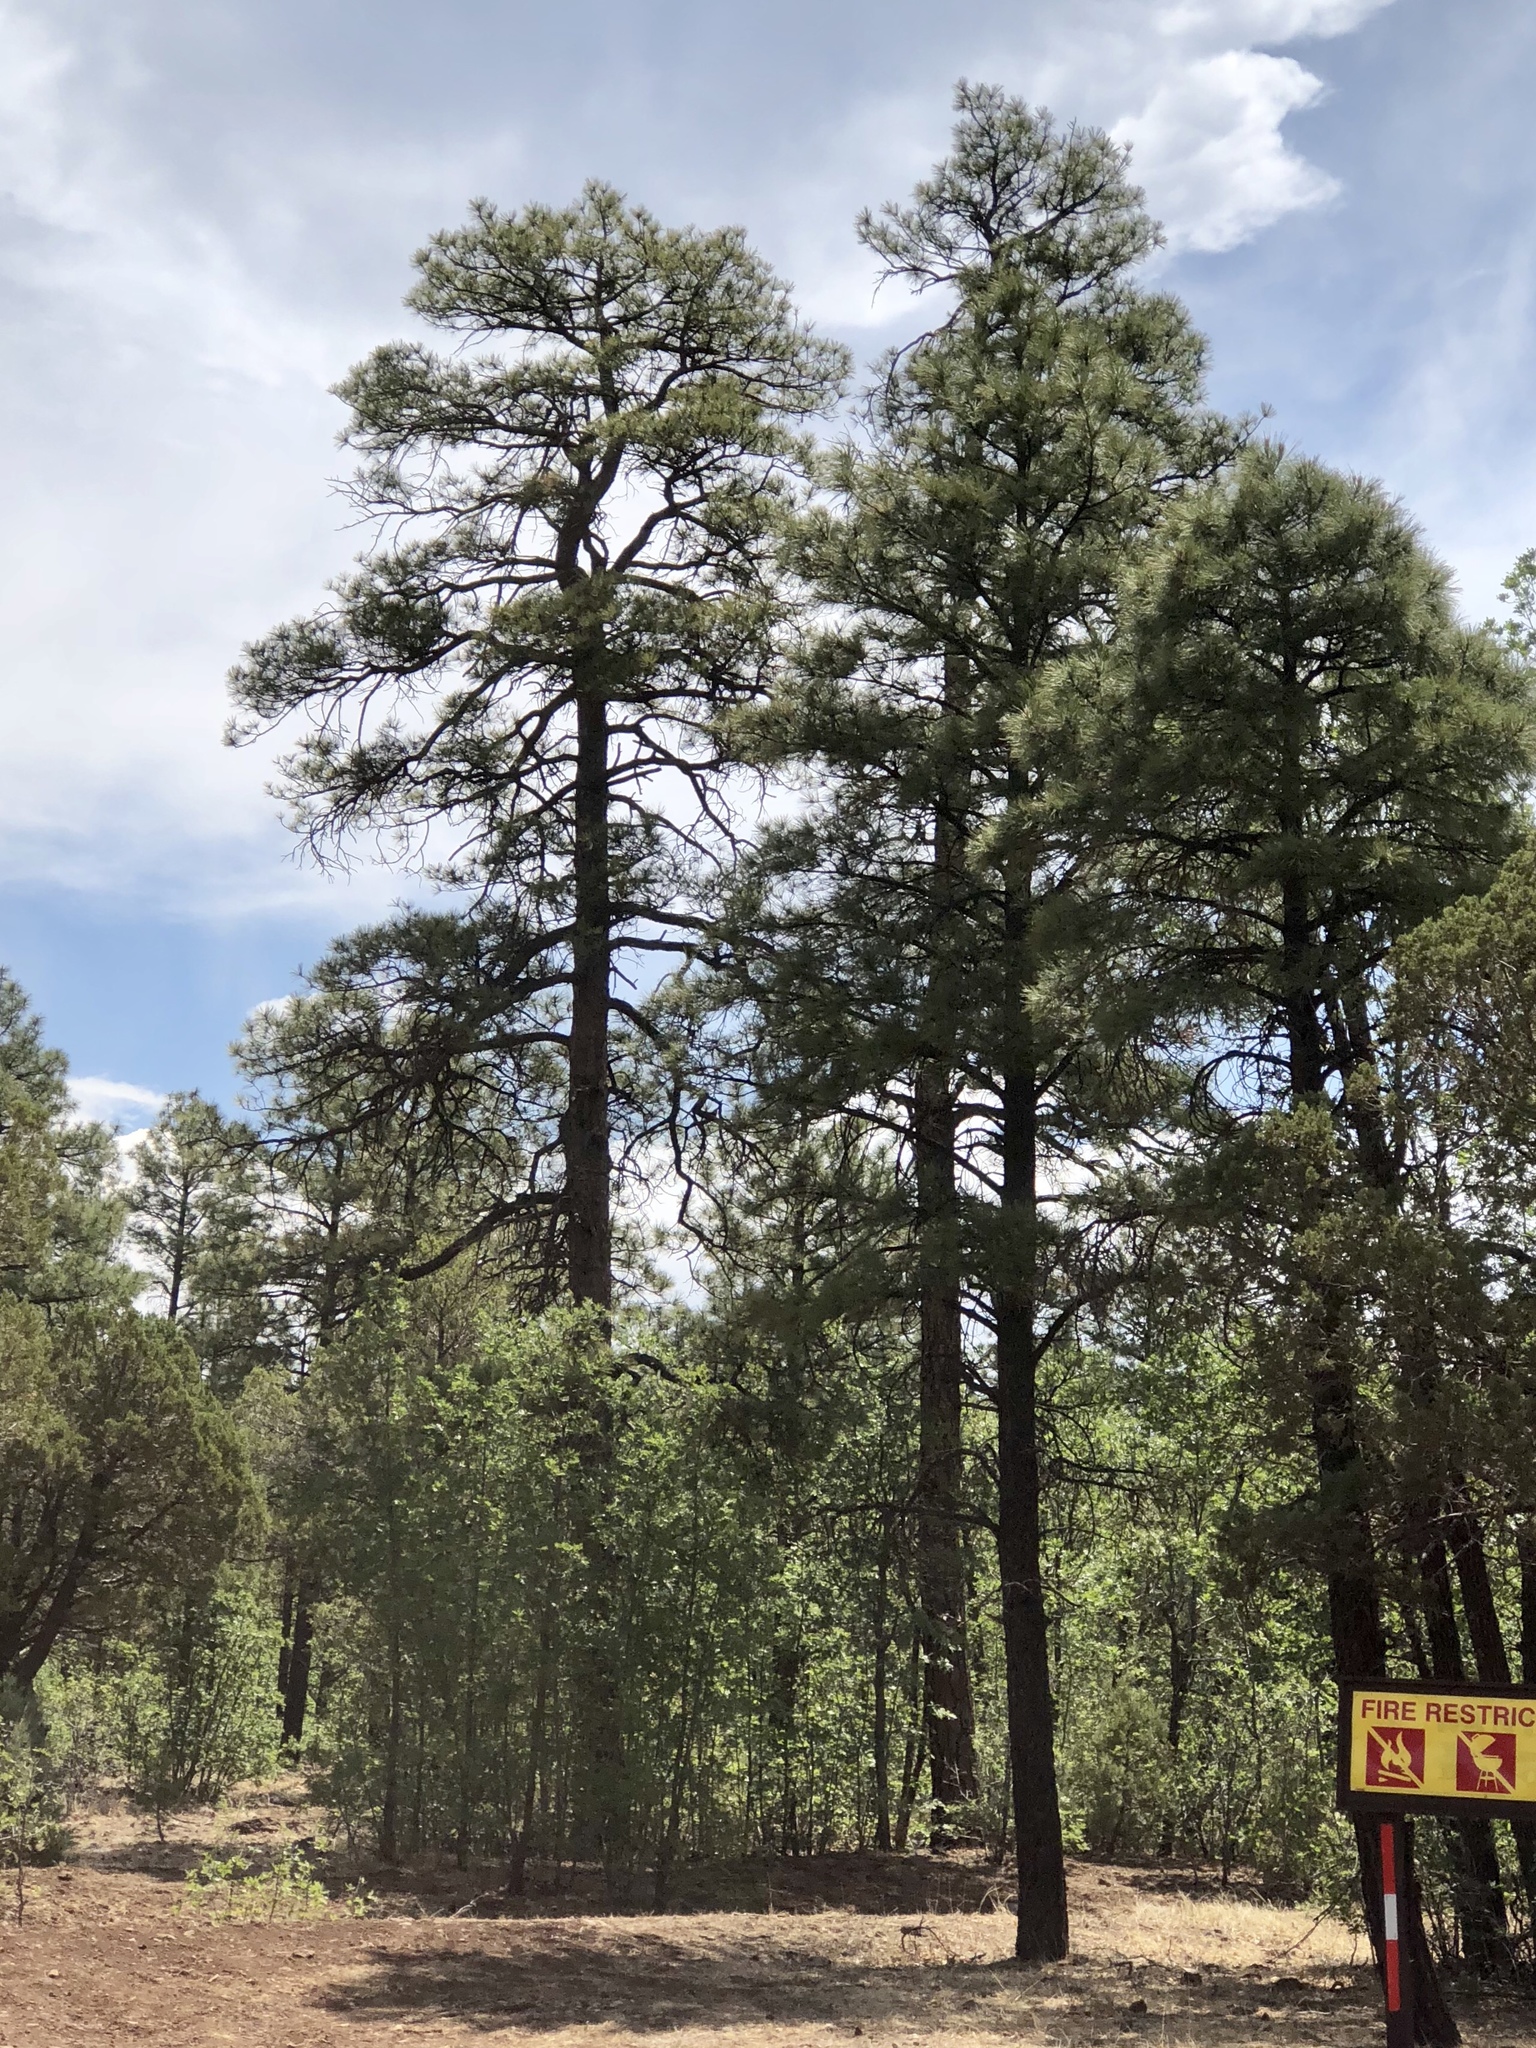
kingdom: Plantae
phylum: Tracheophyta
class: Pinopsida
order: Pinales
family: Pinaceae
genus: Pinus
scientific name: Pinus ponderosa
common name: Western yellow-pine
